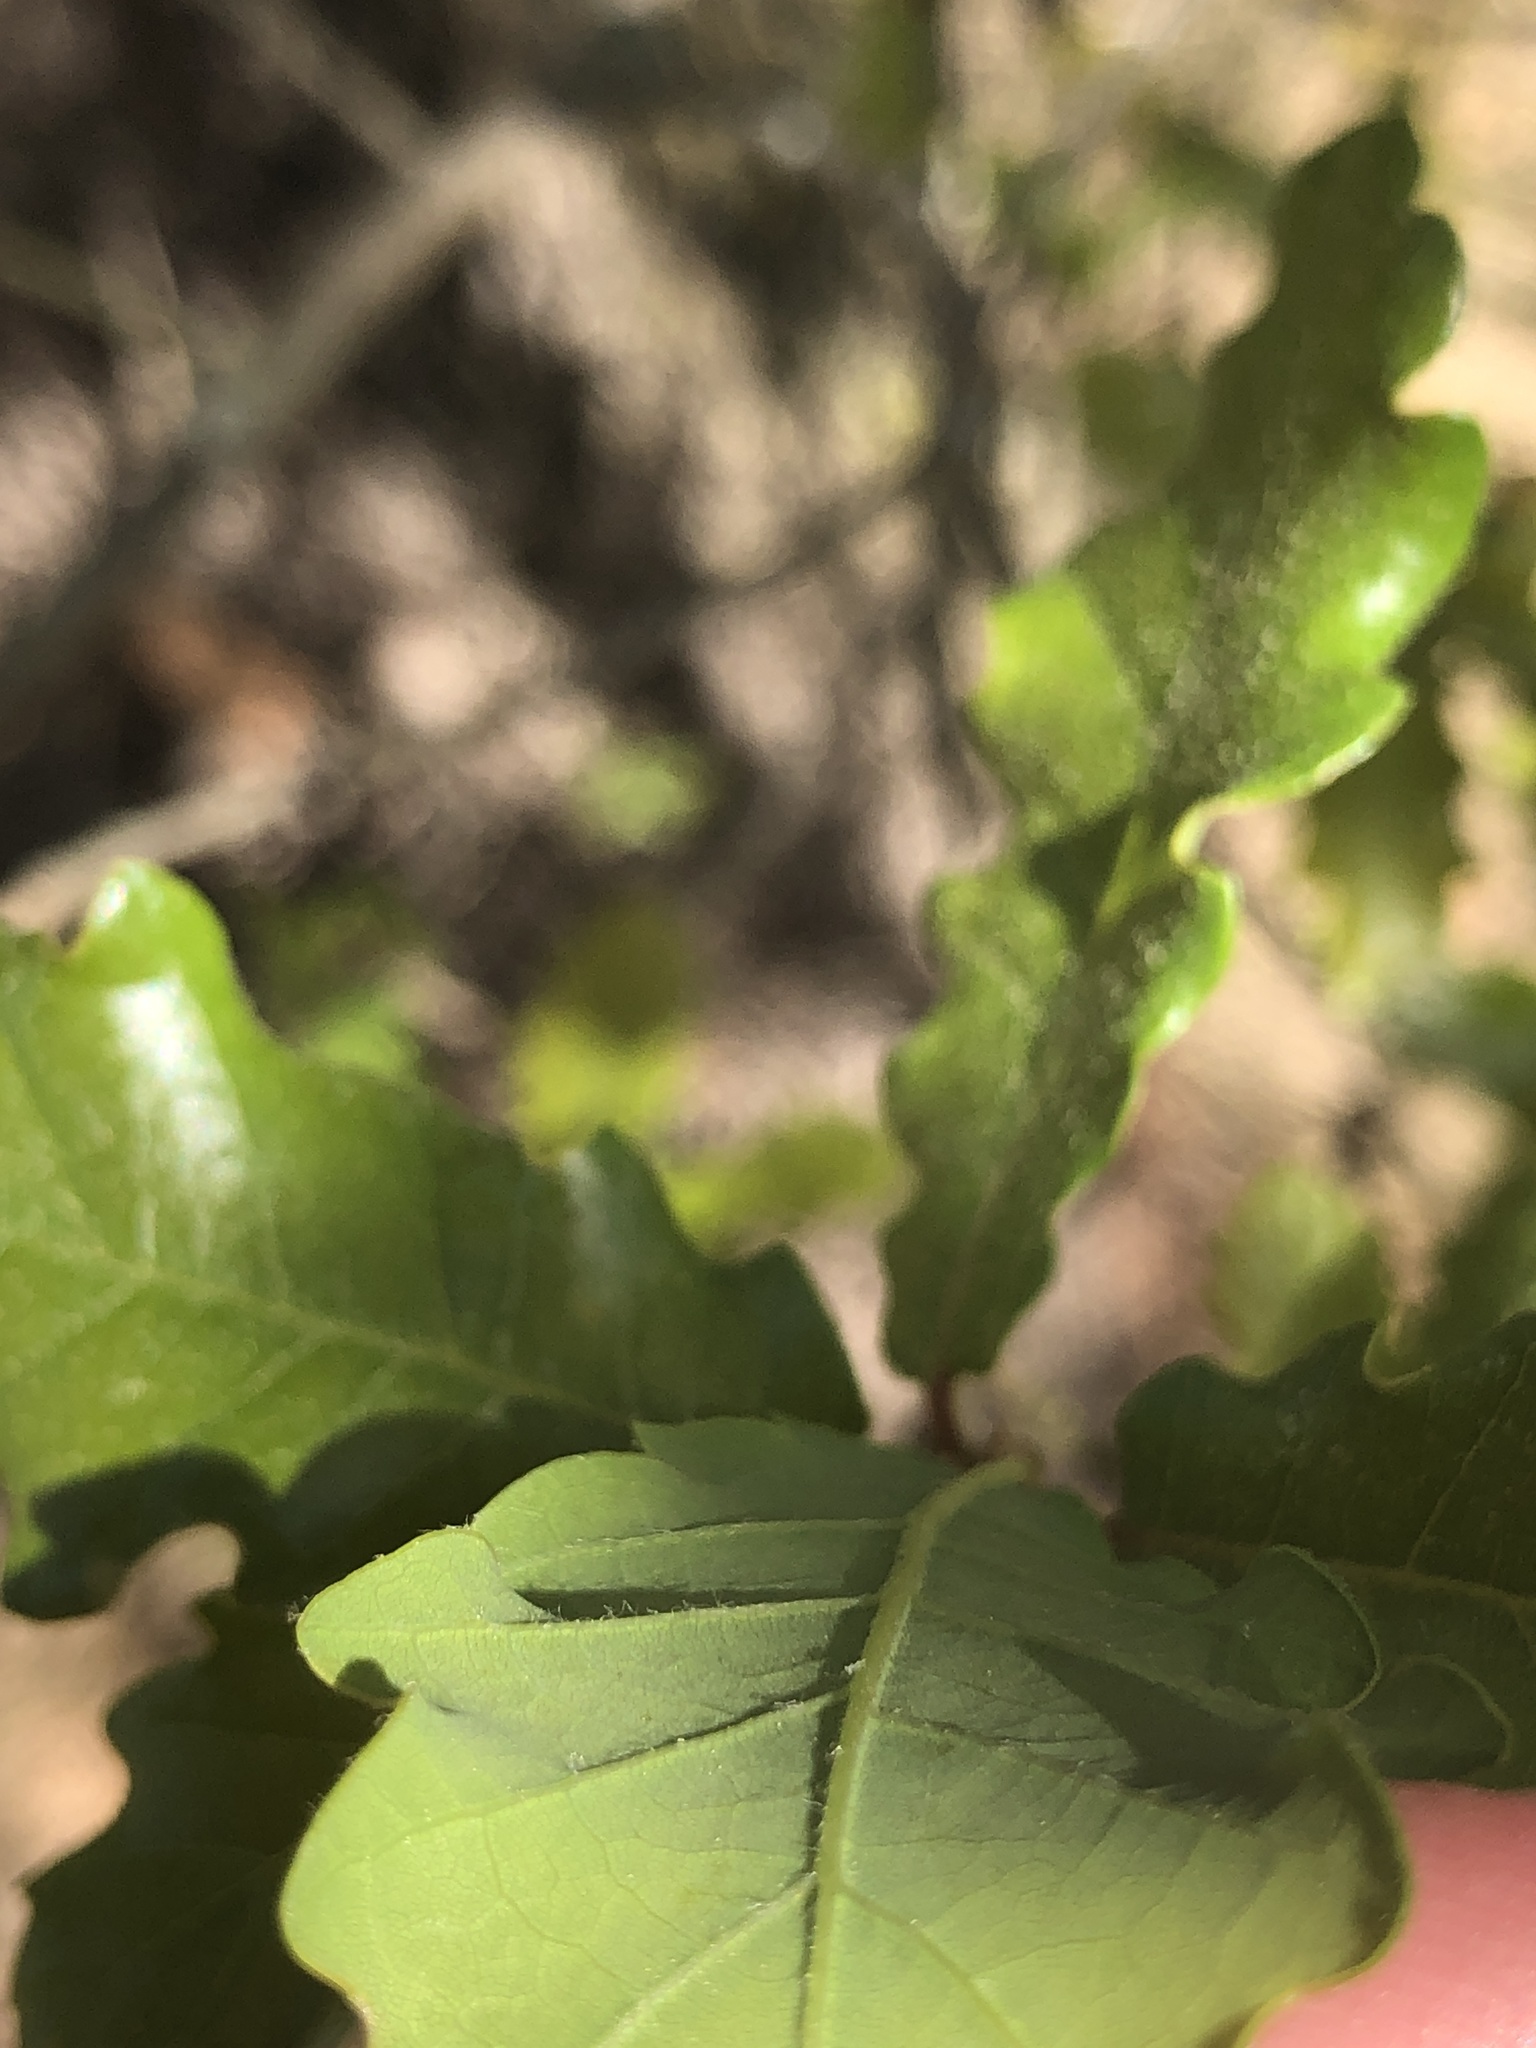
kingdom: Plantae
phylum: Tracheophyta
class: Magnoliopsida
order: Fagales
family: Fagaceae
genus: Quercus
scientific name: Quercus cerrioides
